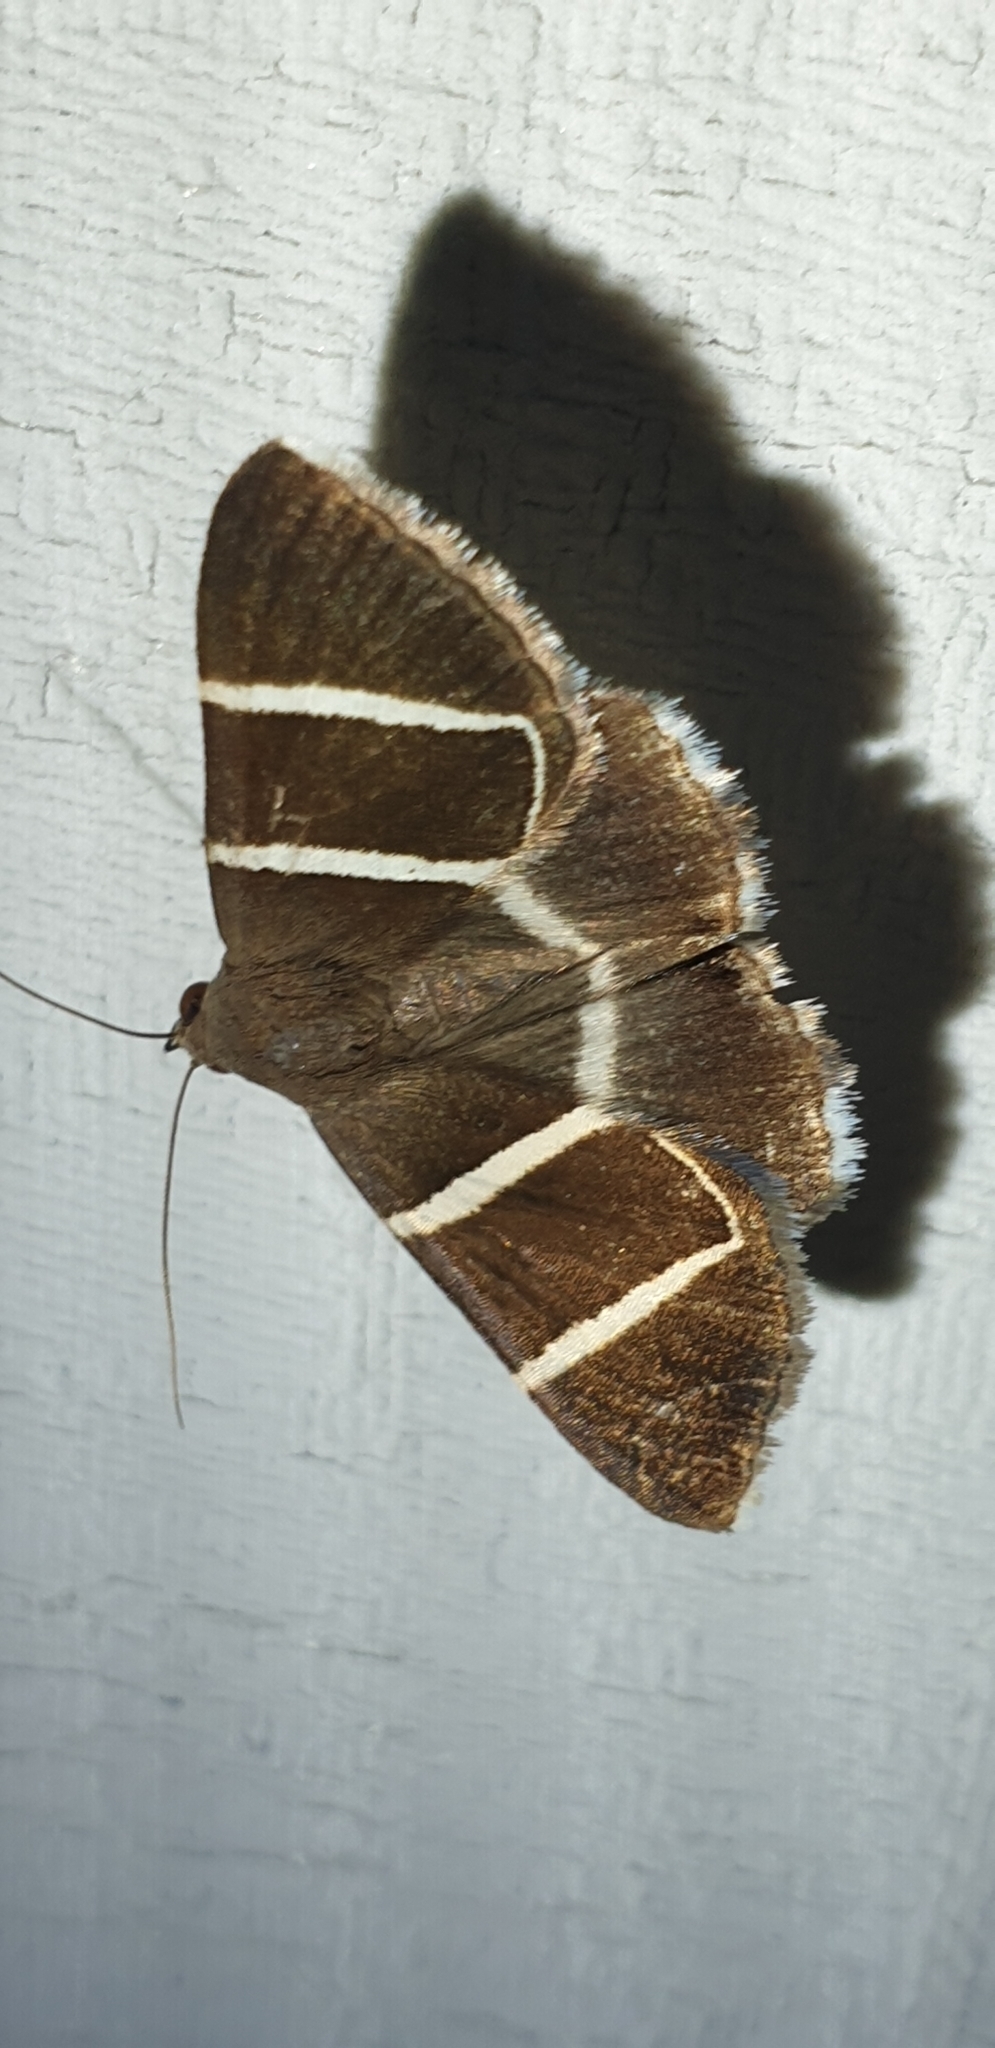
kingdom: Animalia
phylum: Arthropoda
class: Insecta
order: Lepidoptera
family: Erebidae
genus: Grammodes
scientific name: Grammodes justa
